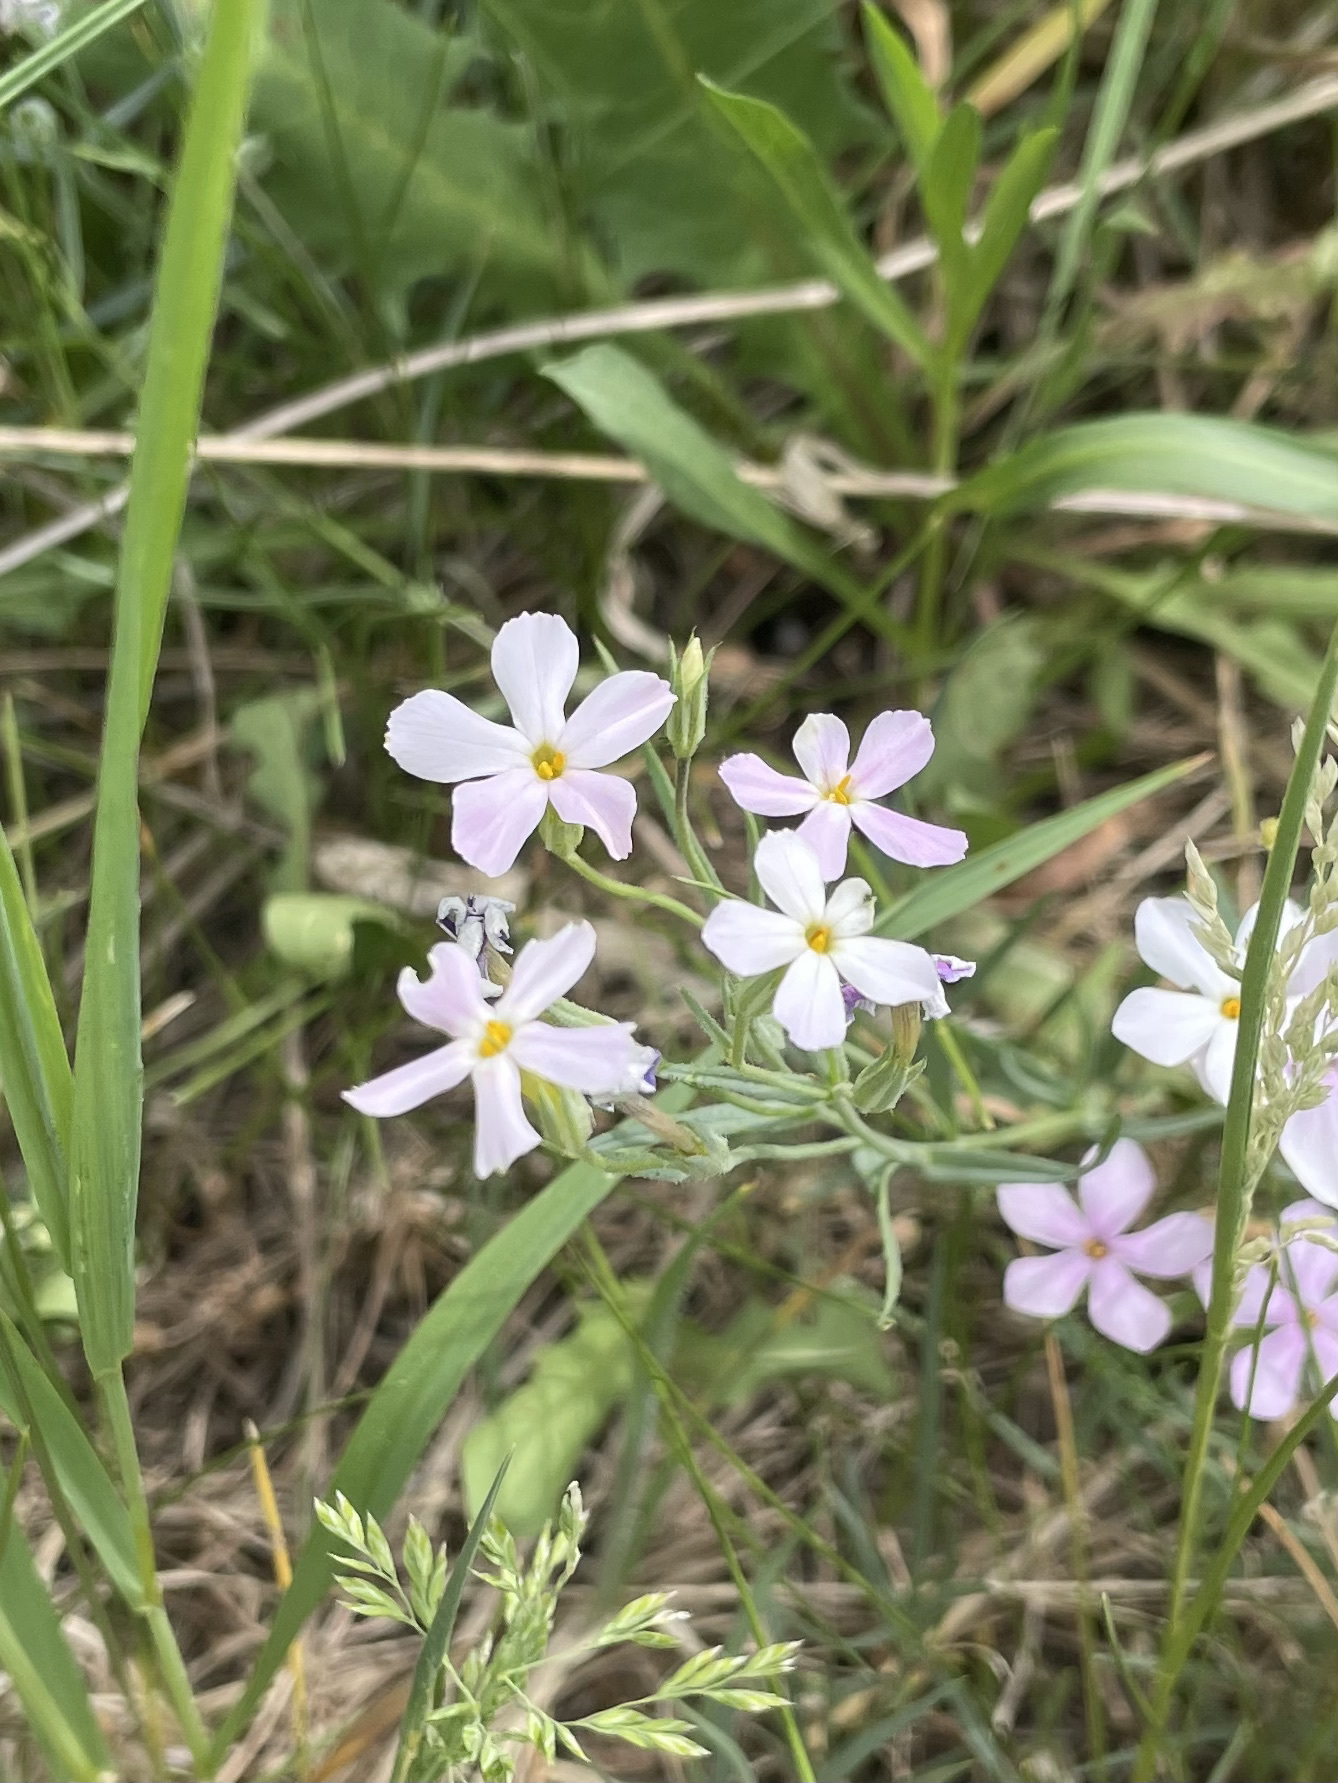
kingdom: Plantae
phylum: Tracheophyta
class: Magnoliopsida
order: Ericales
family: Polemoniaceae
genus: Phlox
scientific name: Phlox longifolia
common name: Longleaf phlox
